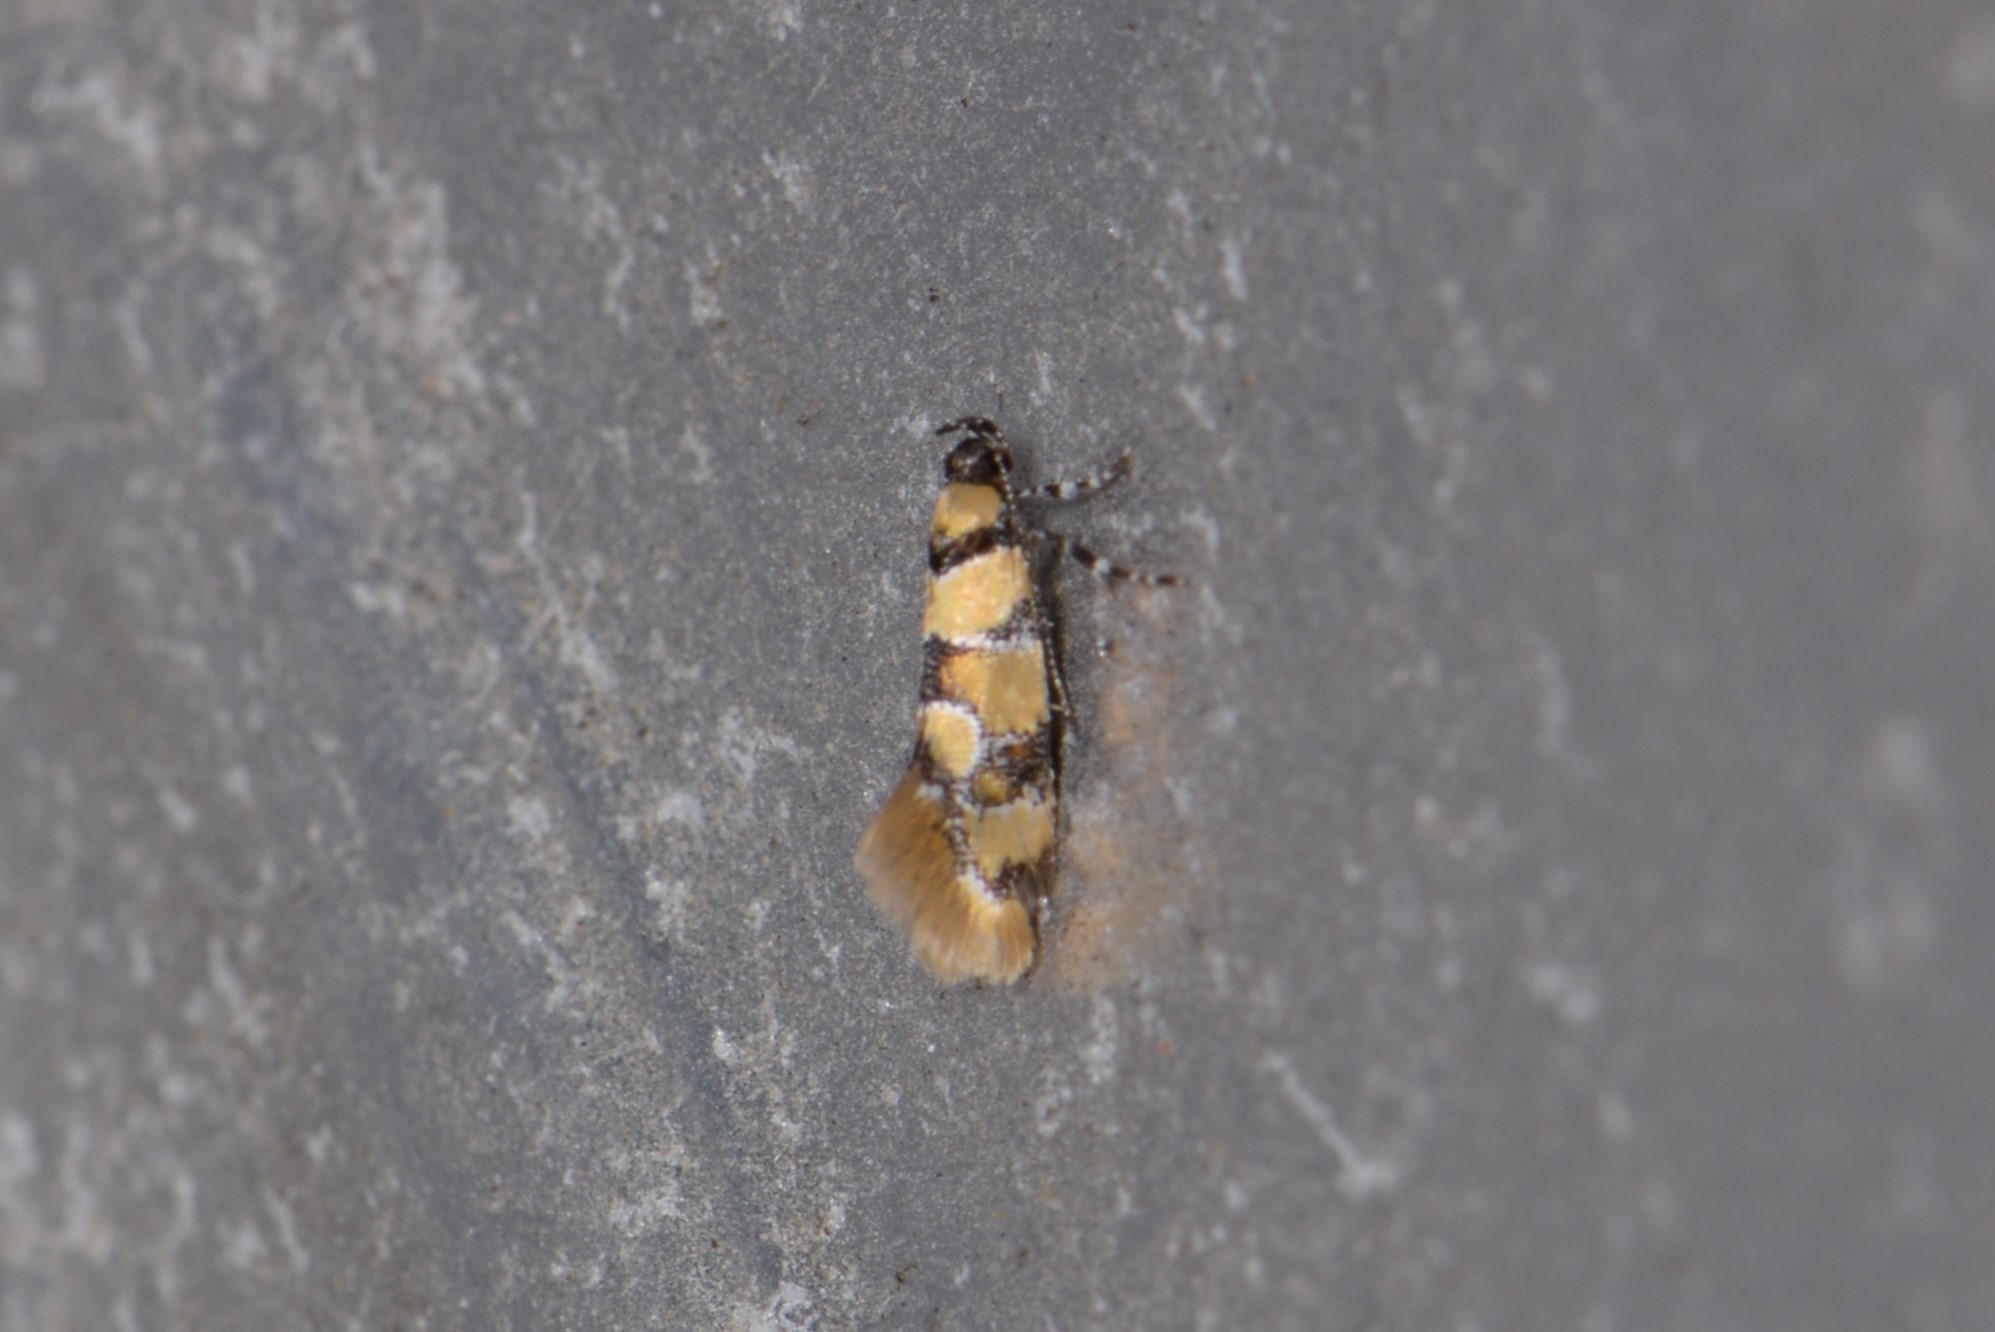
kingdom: Animalia
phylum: Arthropoda
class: Insecta
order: Lepidoptera
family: Oecophoridae
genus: Decantha
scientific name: Decantha borkhausenii
